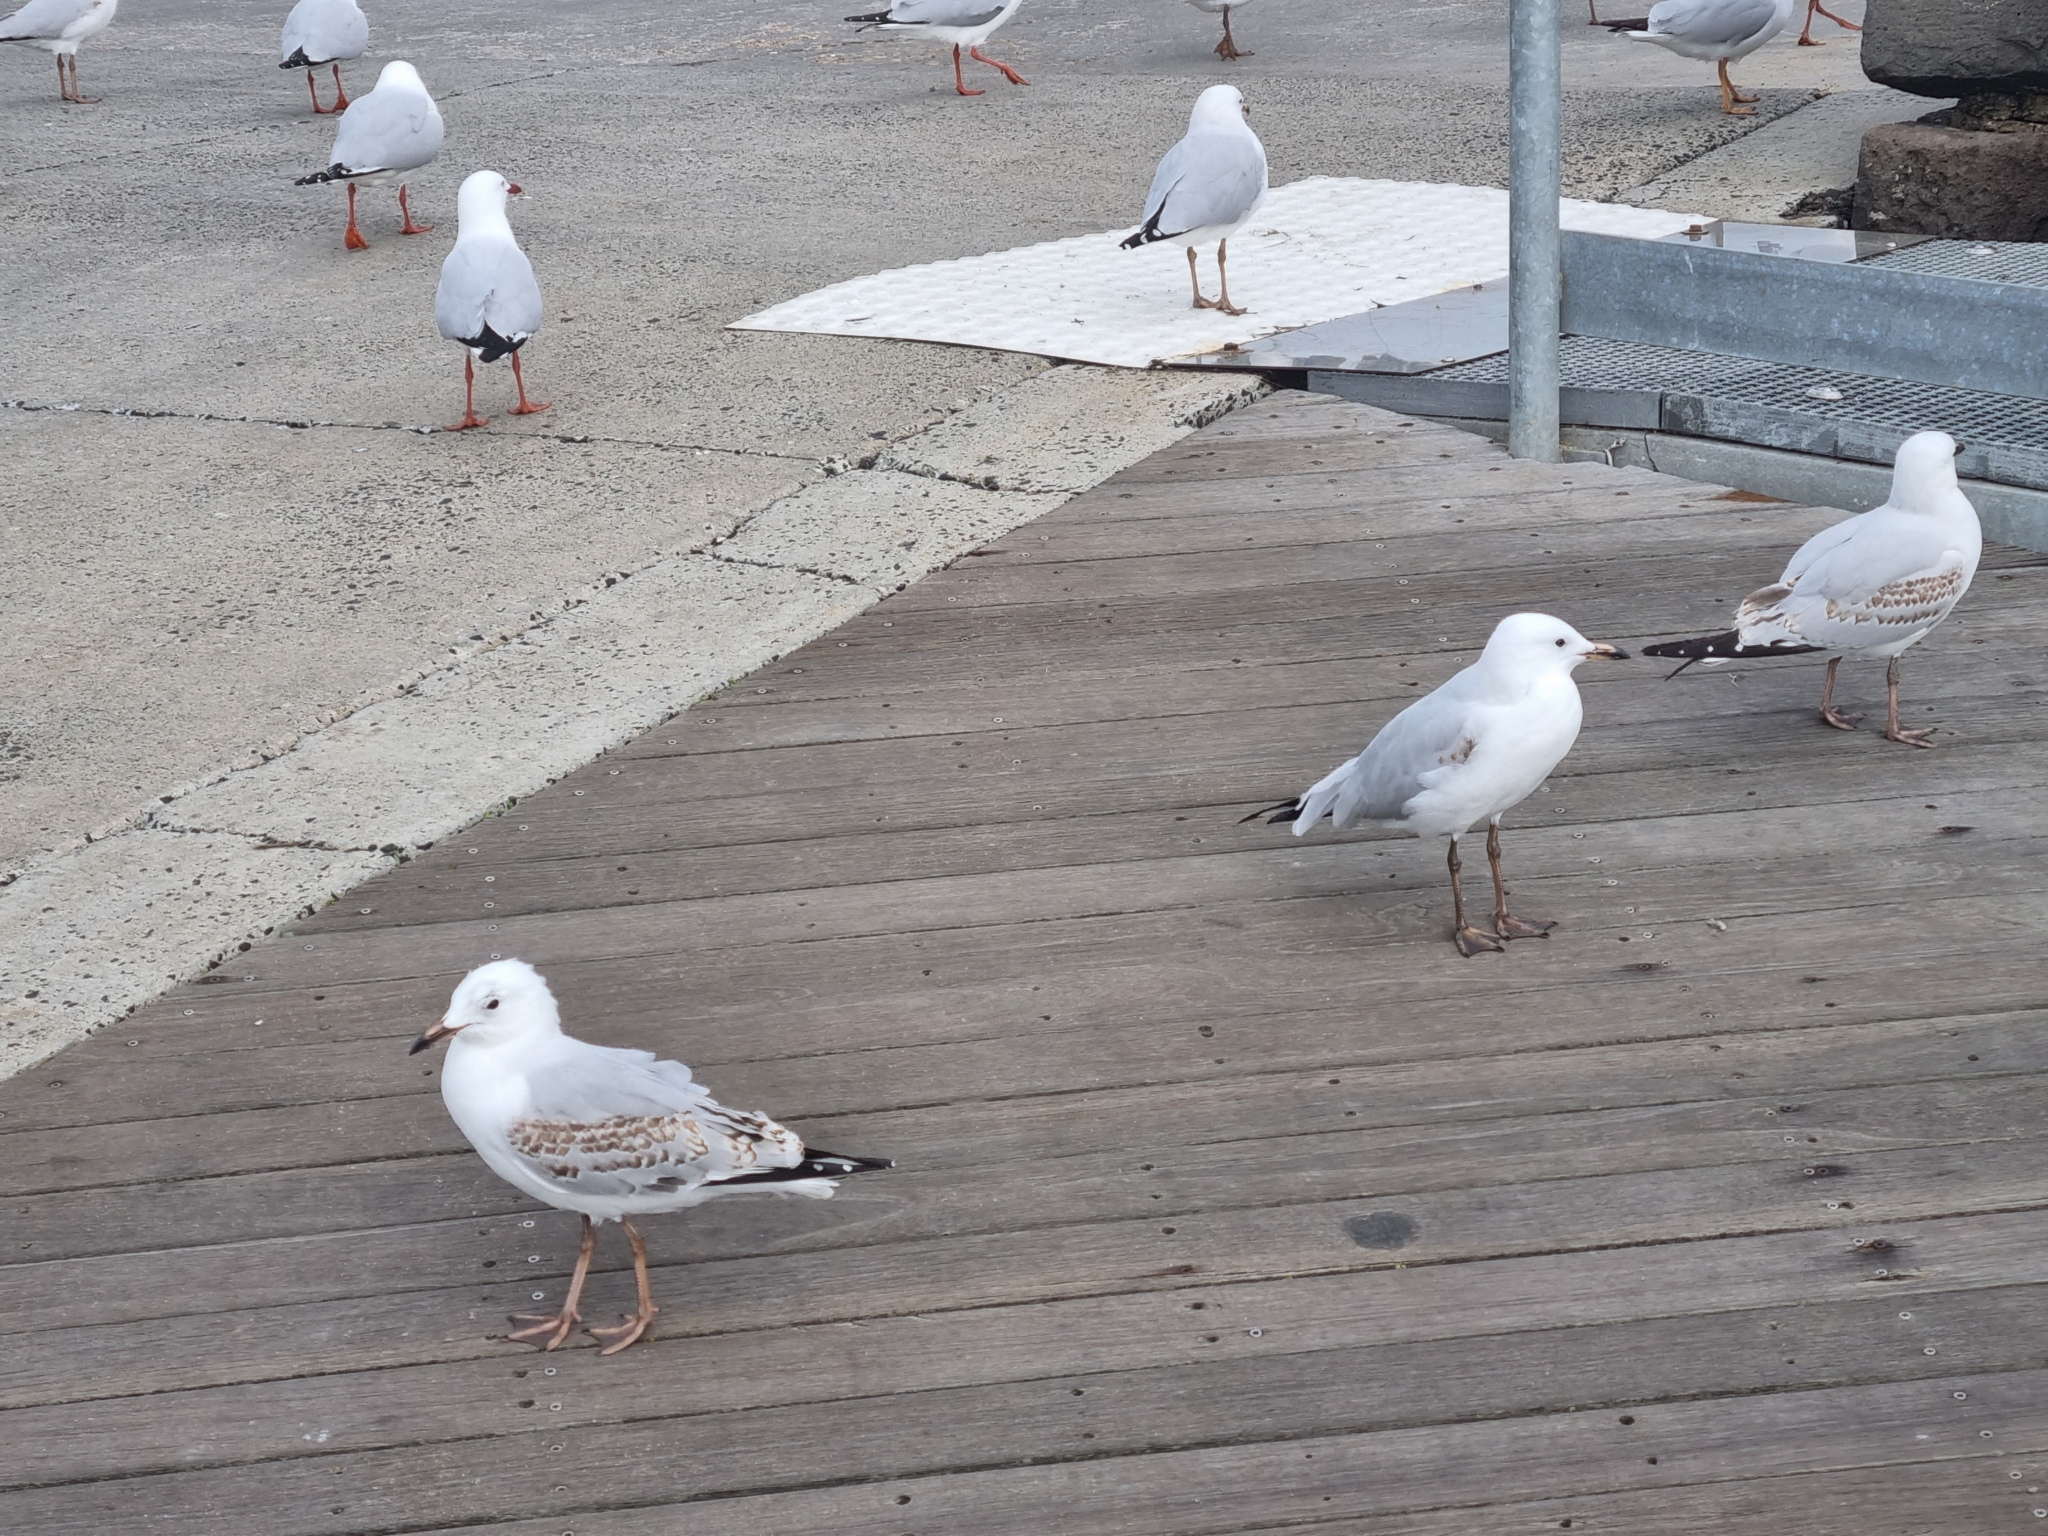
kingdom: Animalia
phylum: Chordata
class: Aves
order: Charadriiformes
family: Laridae
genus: Chroicocephalus
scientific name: Chroicocephalus novaehollandiae
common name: Silver gull
